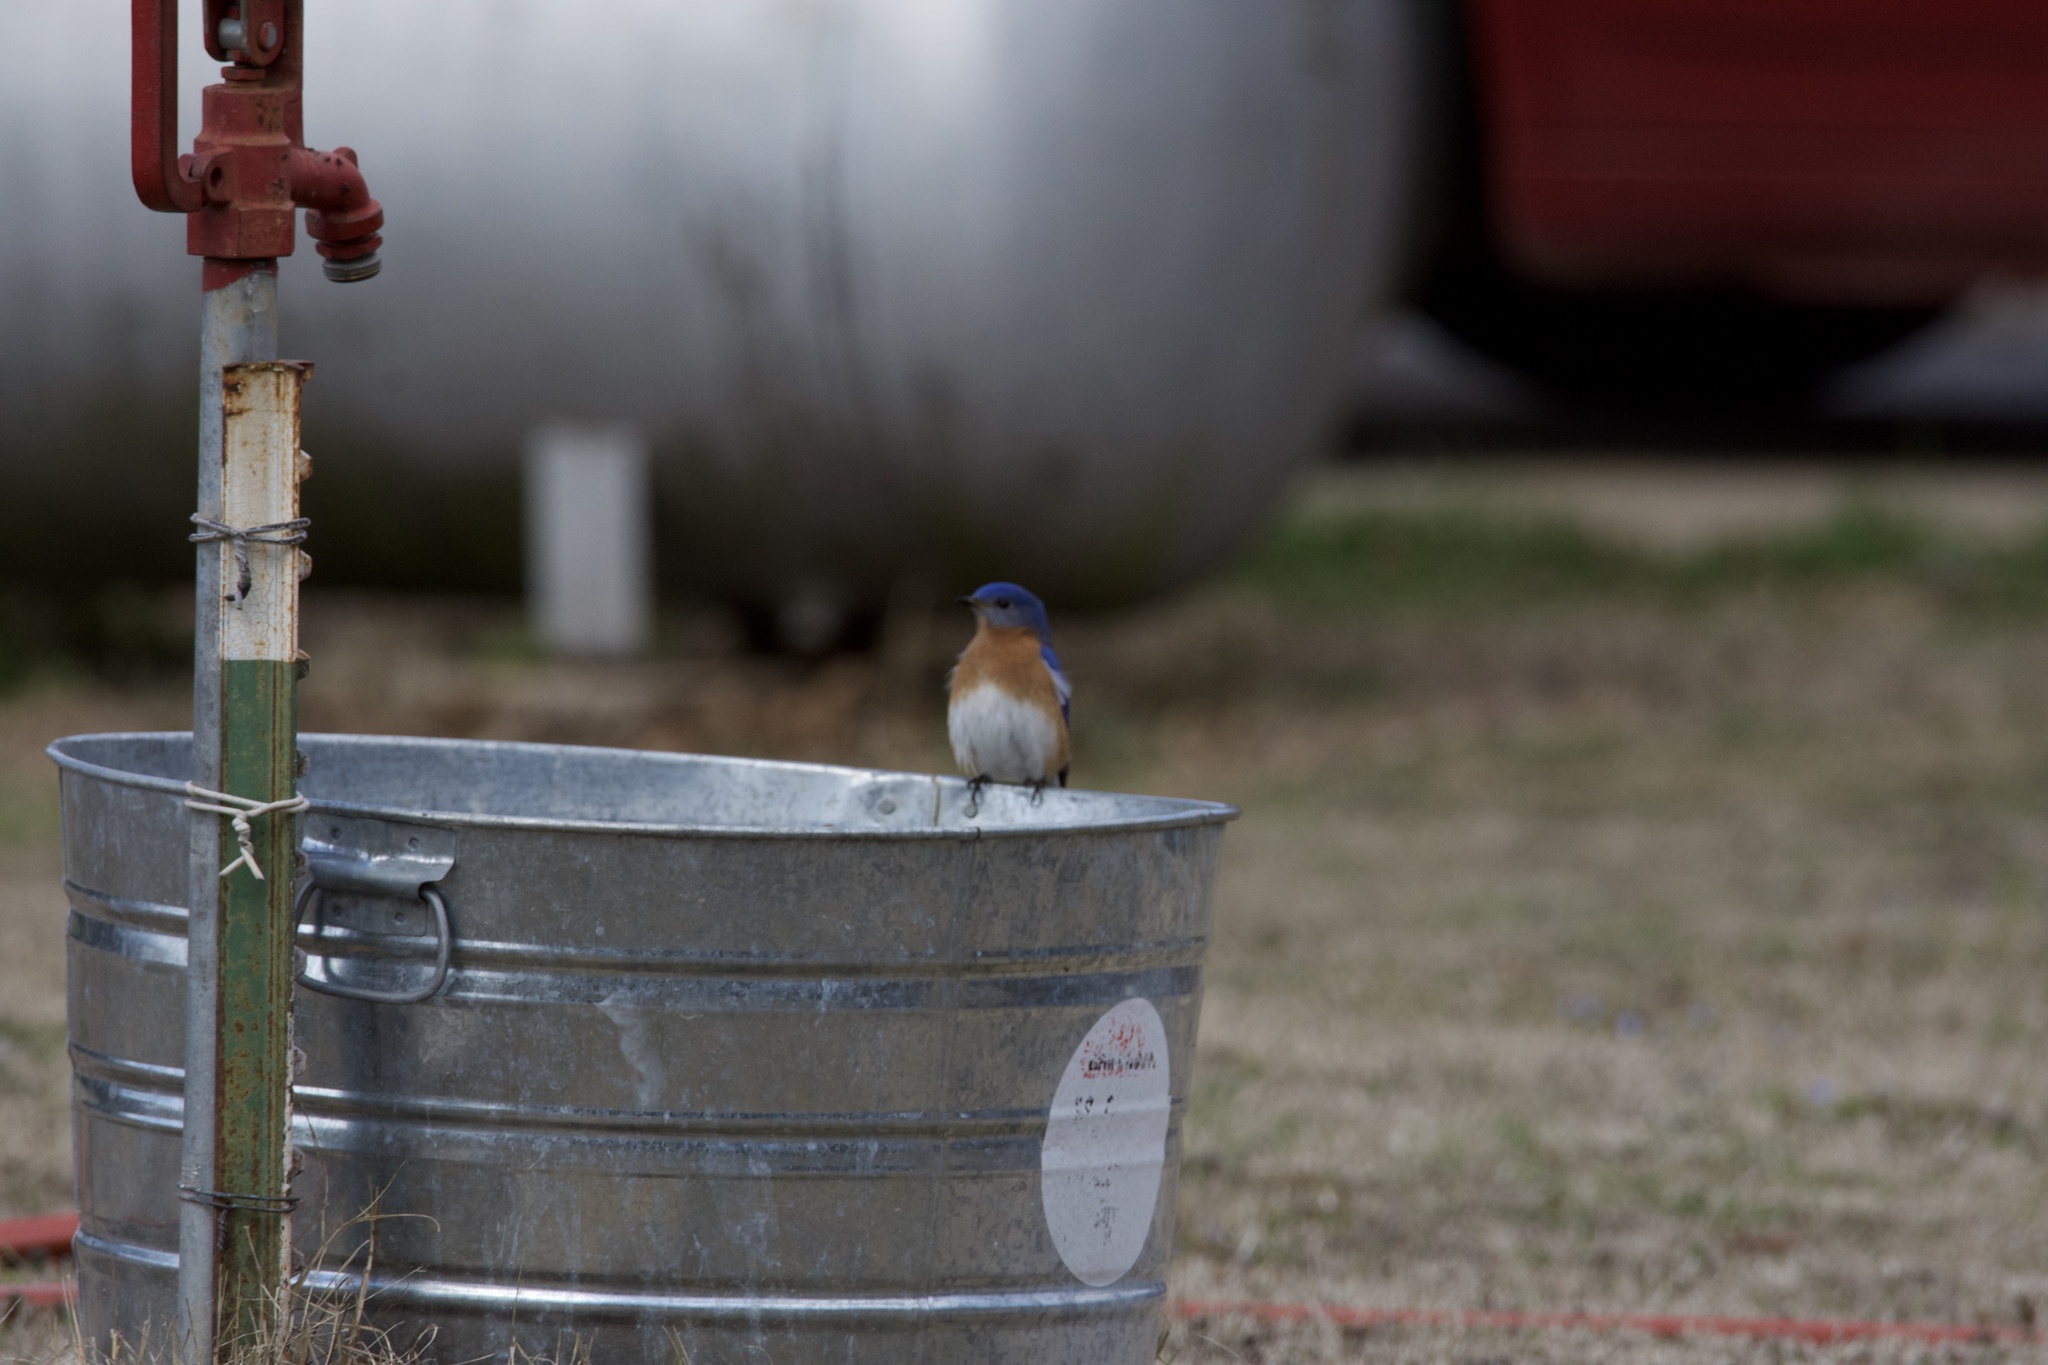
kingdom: Animalia
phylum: Chordata
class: Aves
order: Passeriformes
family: Turdidae
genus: Sialia
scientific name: Sialia sialis
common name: Eastern bluebird
